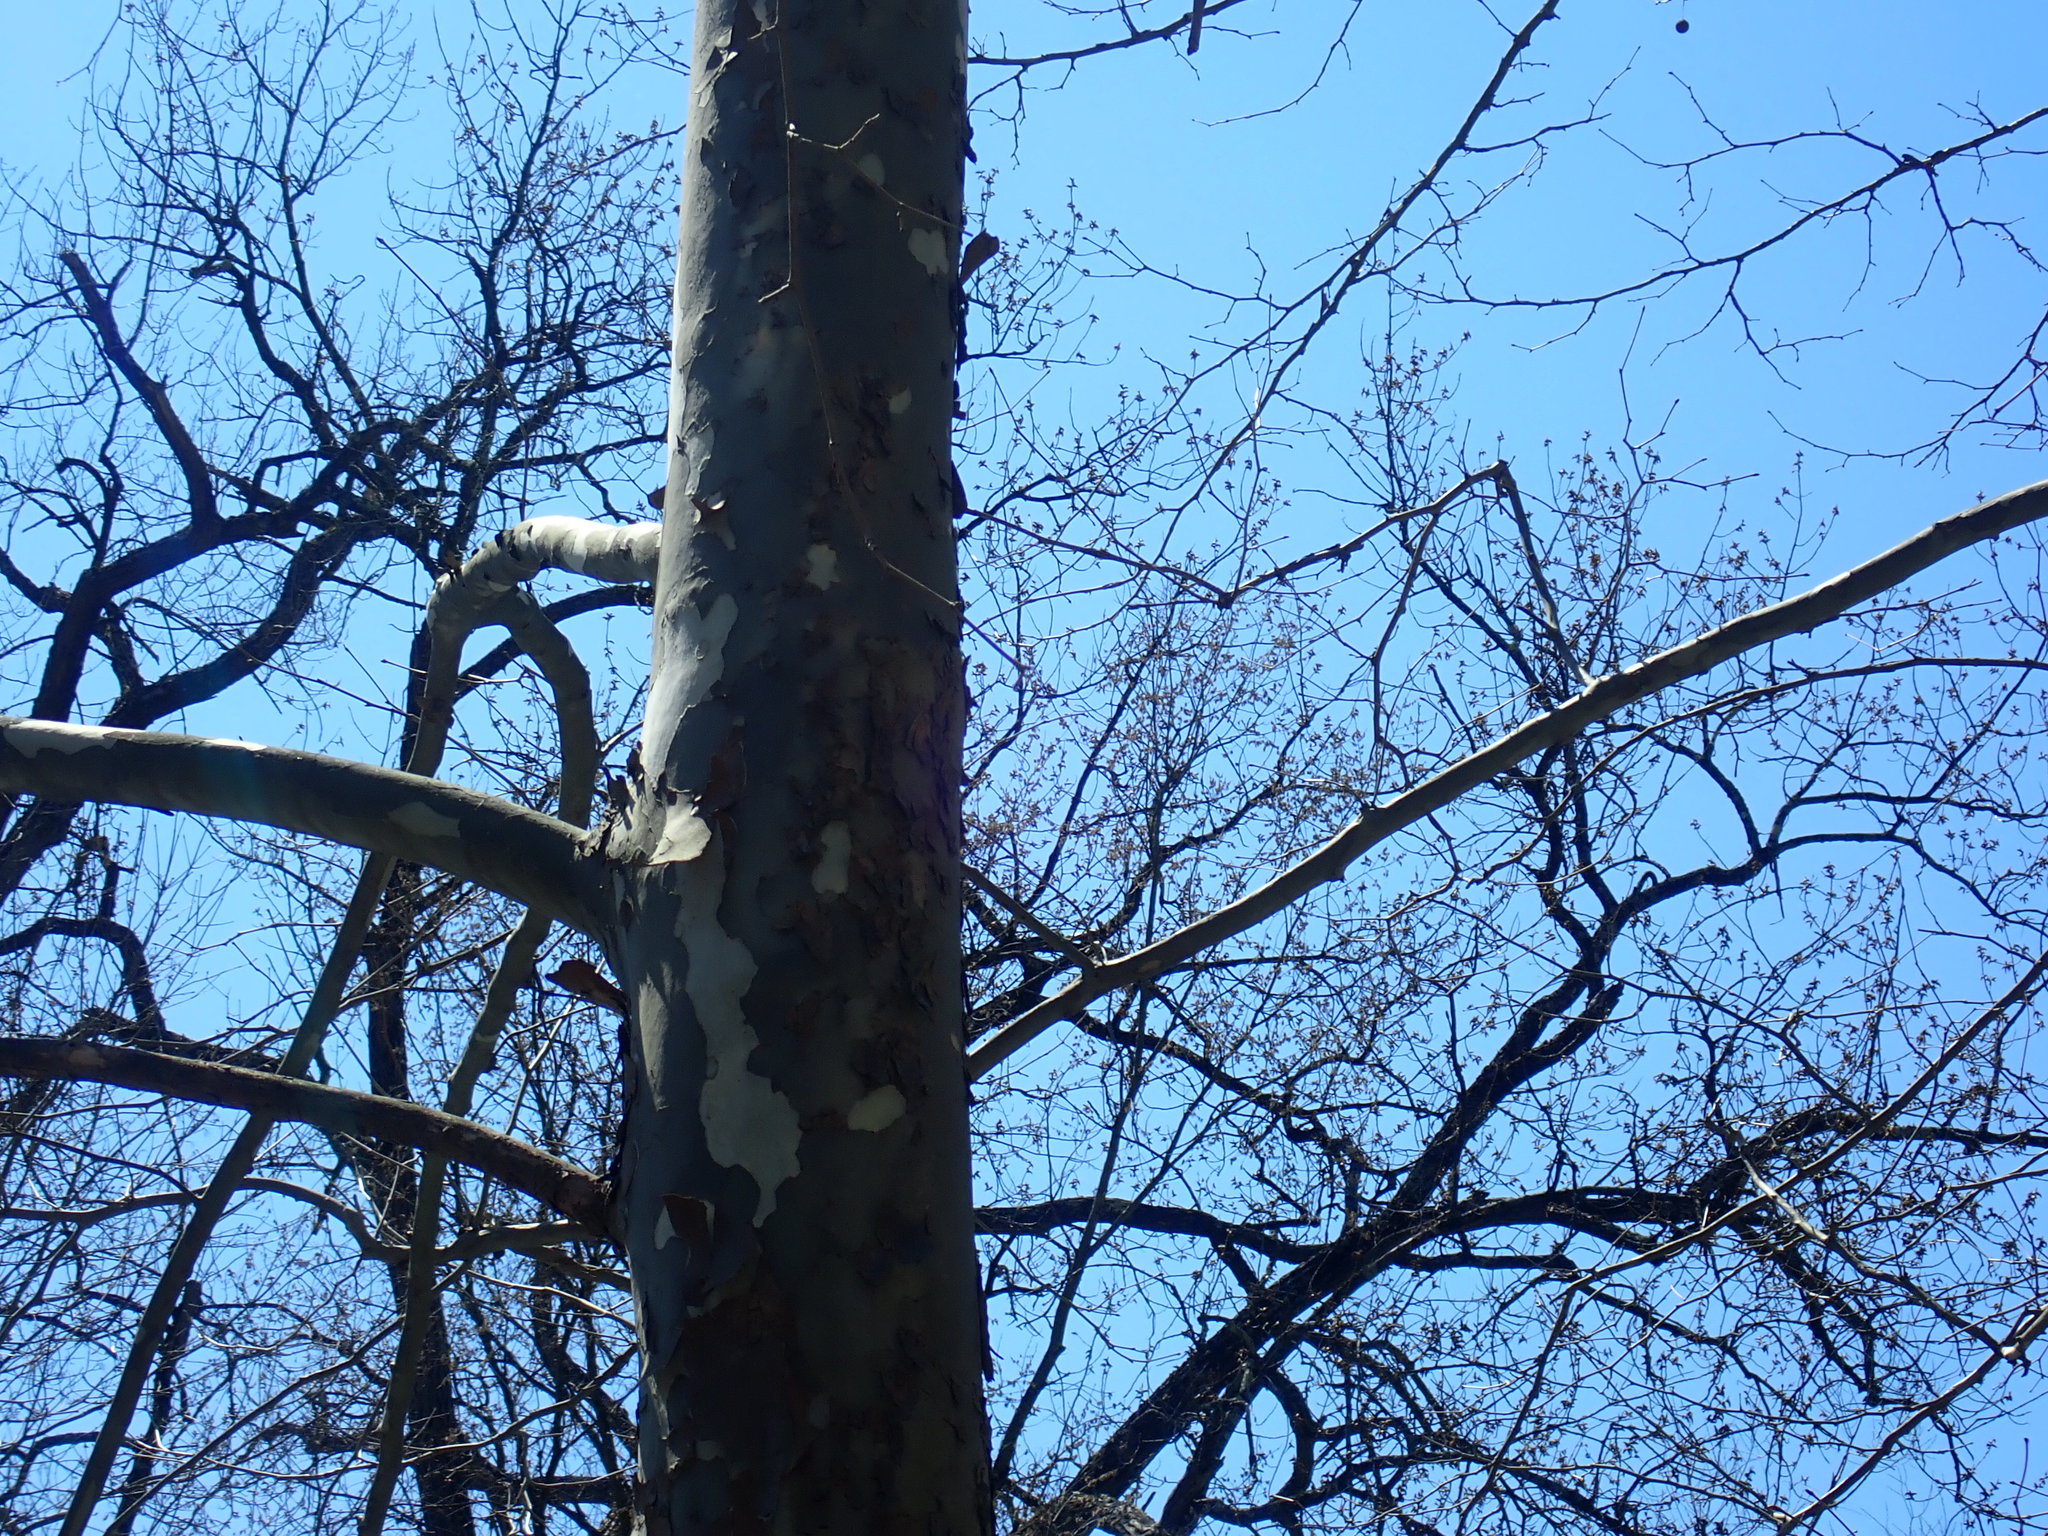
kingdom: Plantae
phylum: Tracheophyta
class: Magnoliopsida
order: Proteales
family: Platanaceae
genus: Platanus
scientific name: Platanus occidentalis
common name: American sycamore
